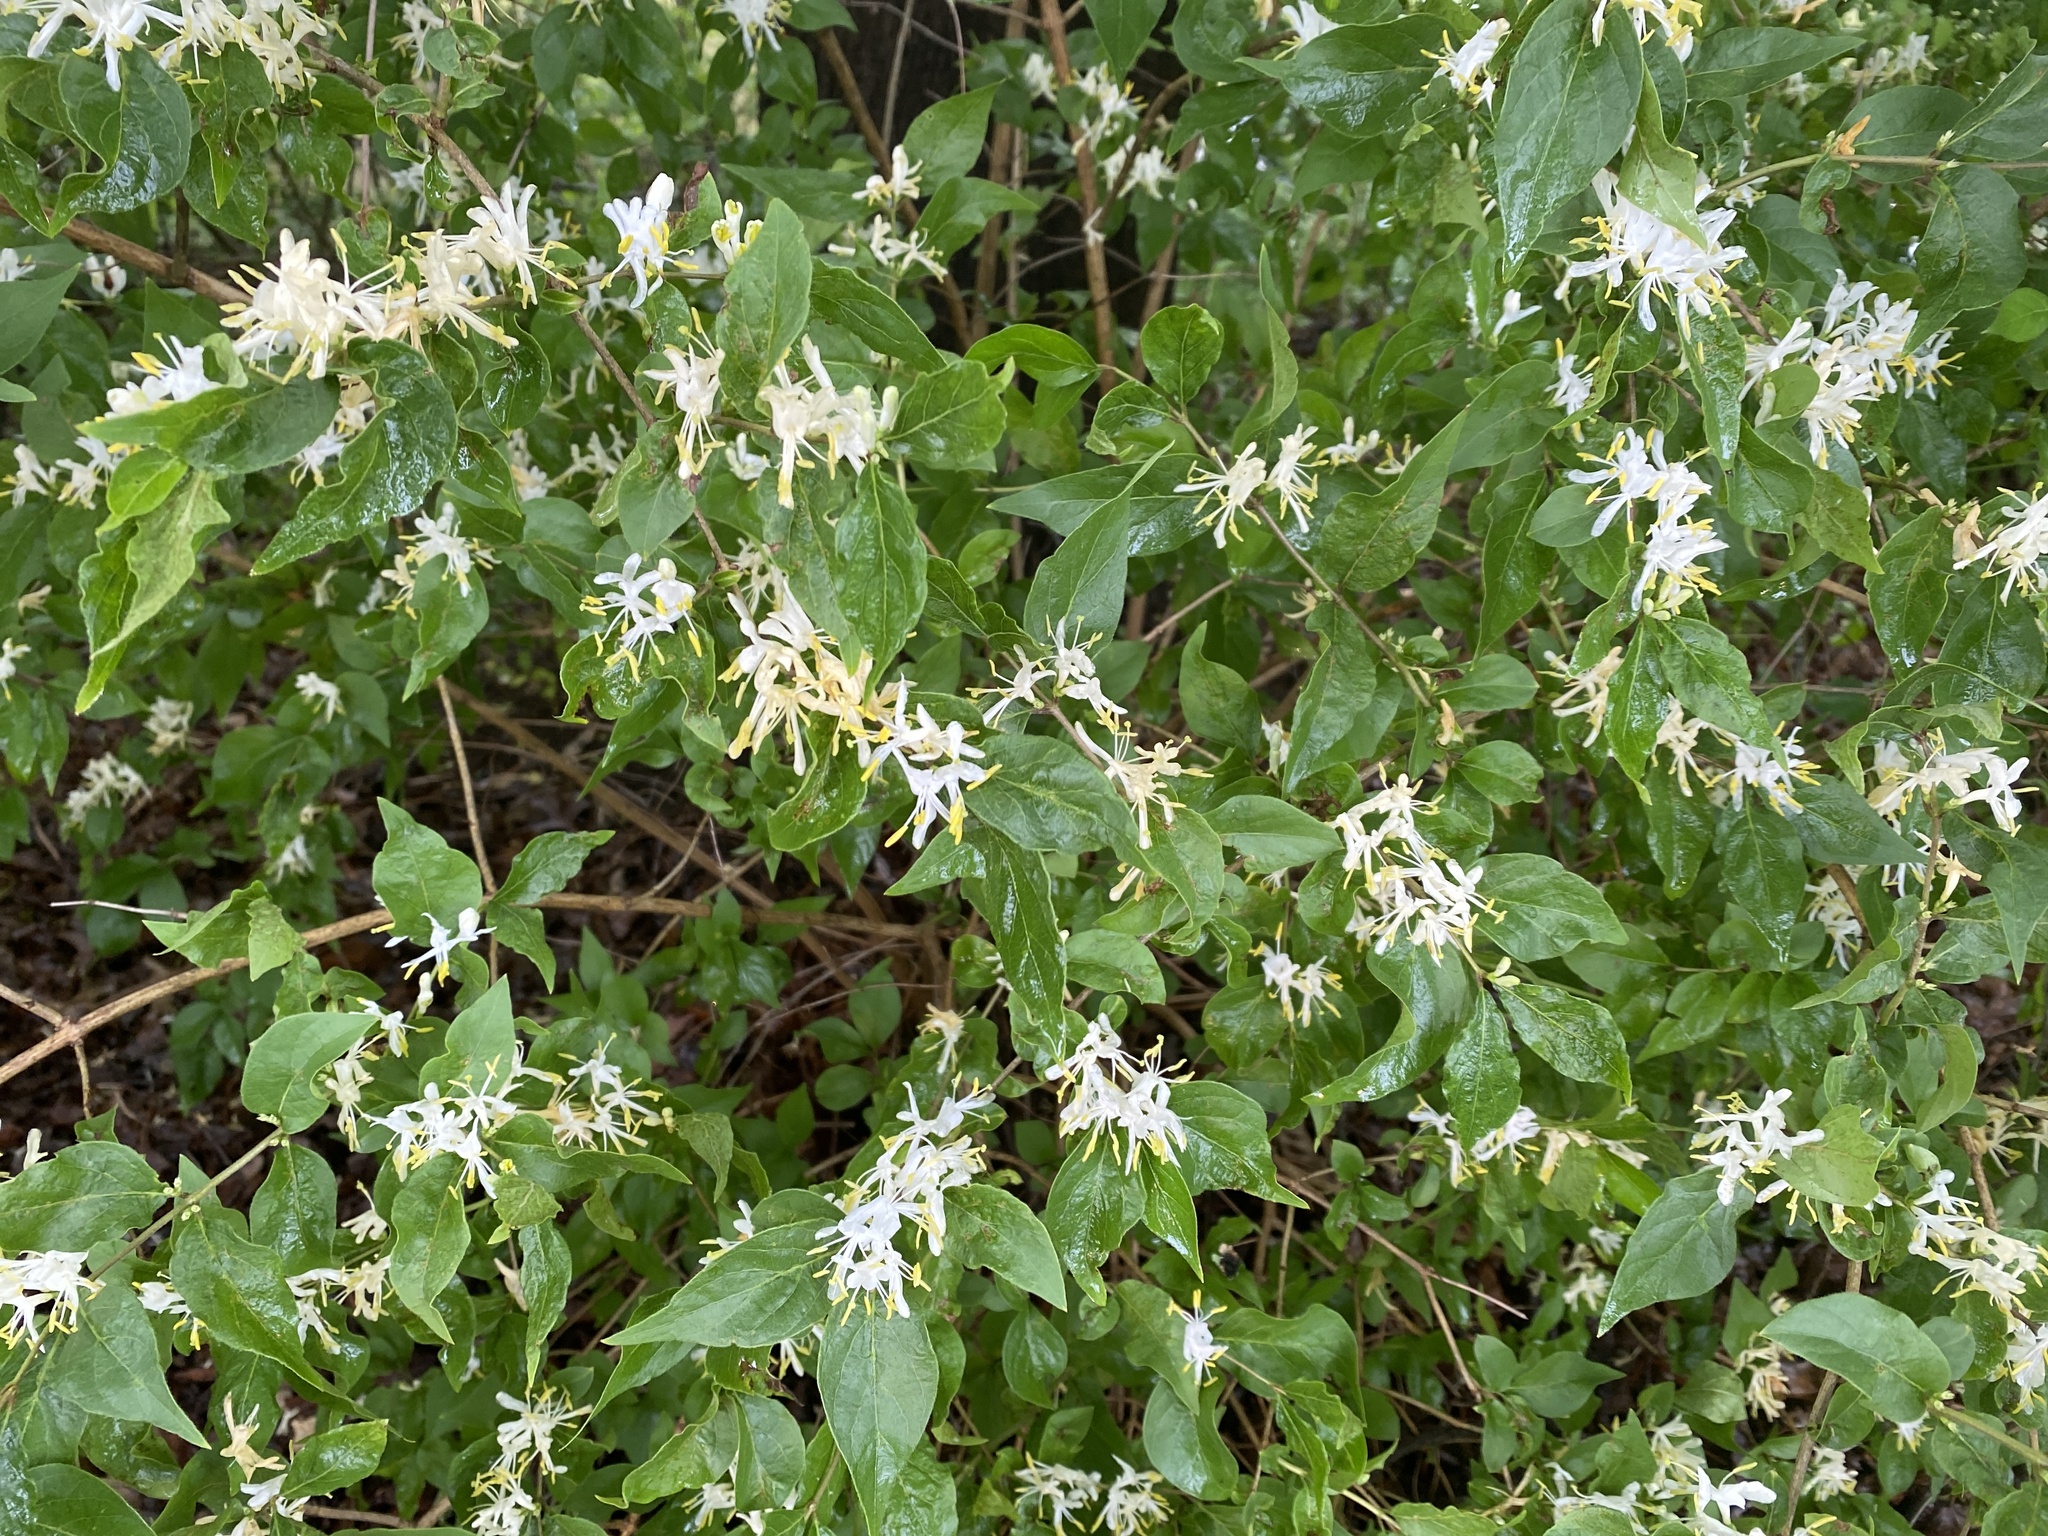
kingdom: Plantae
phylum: Tracheophyta
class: Magnoliopsida
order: Dipsacales
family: Caprifoliaceae
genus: Lonicera
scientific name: Lonicera maackii
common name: Amur honeysuckle
